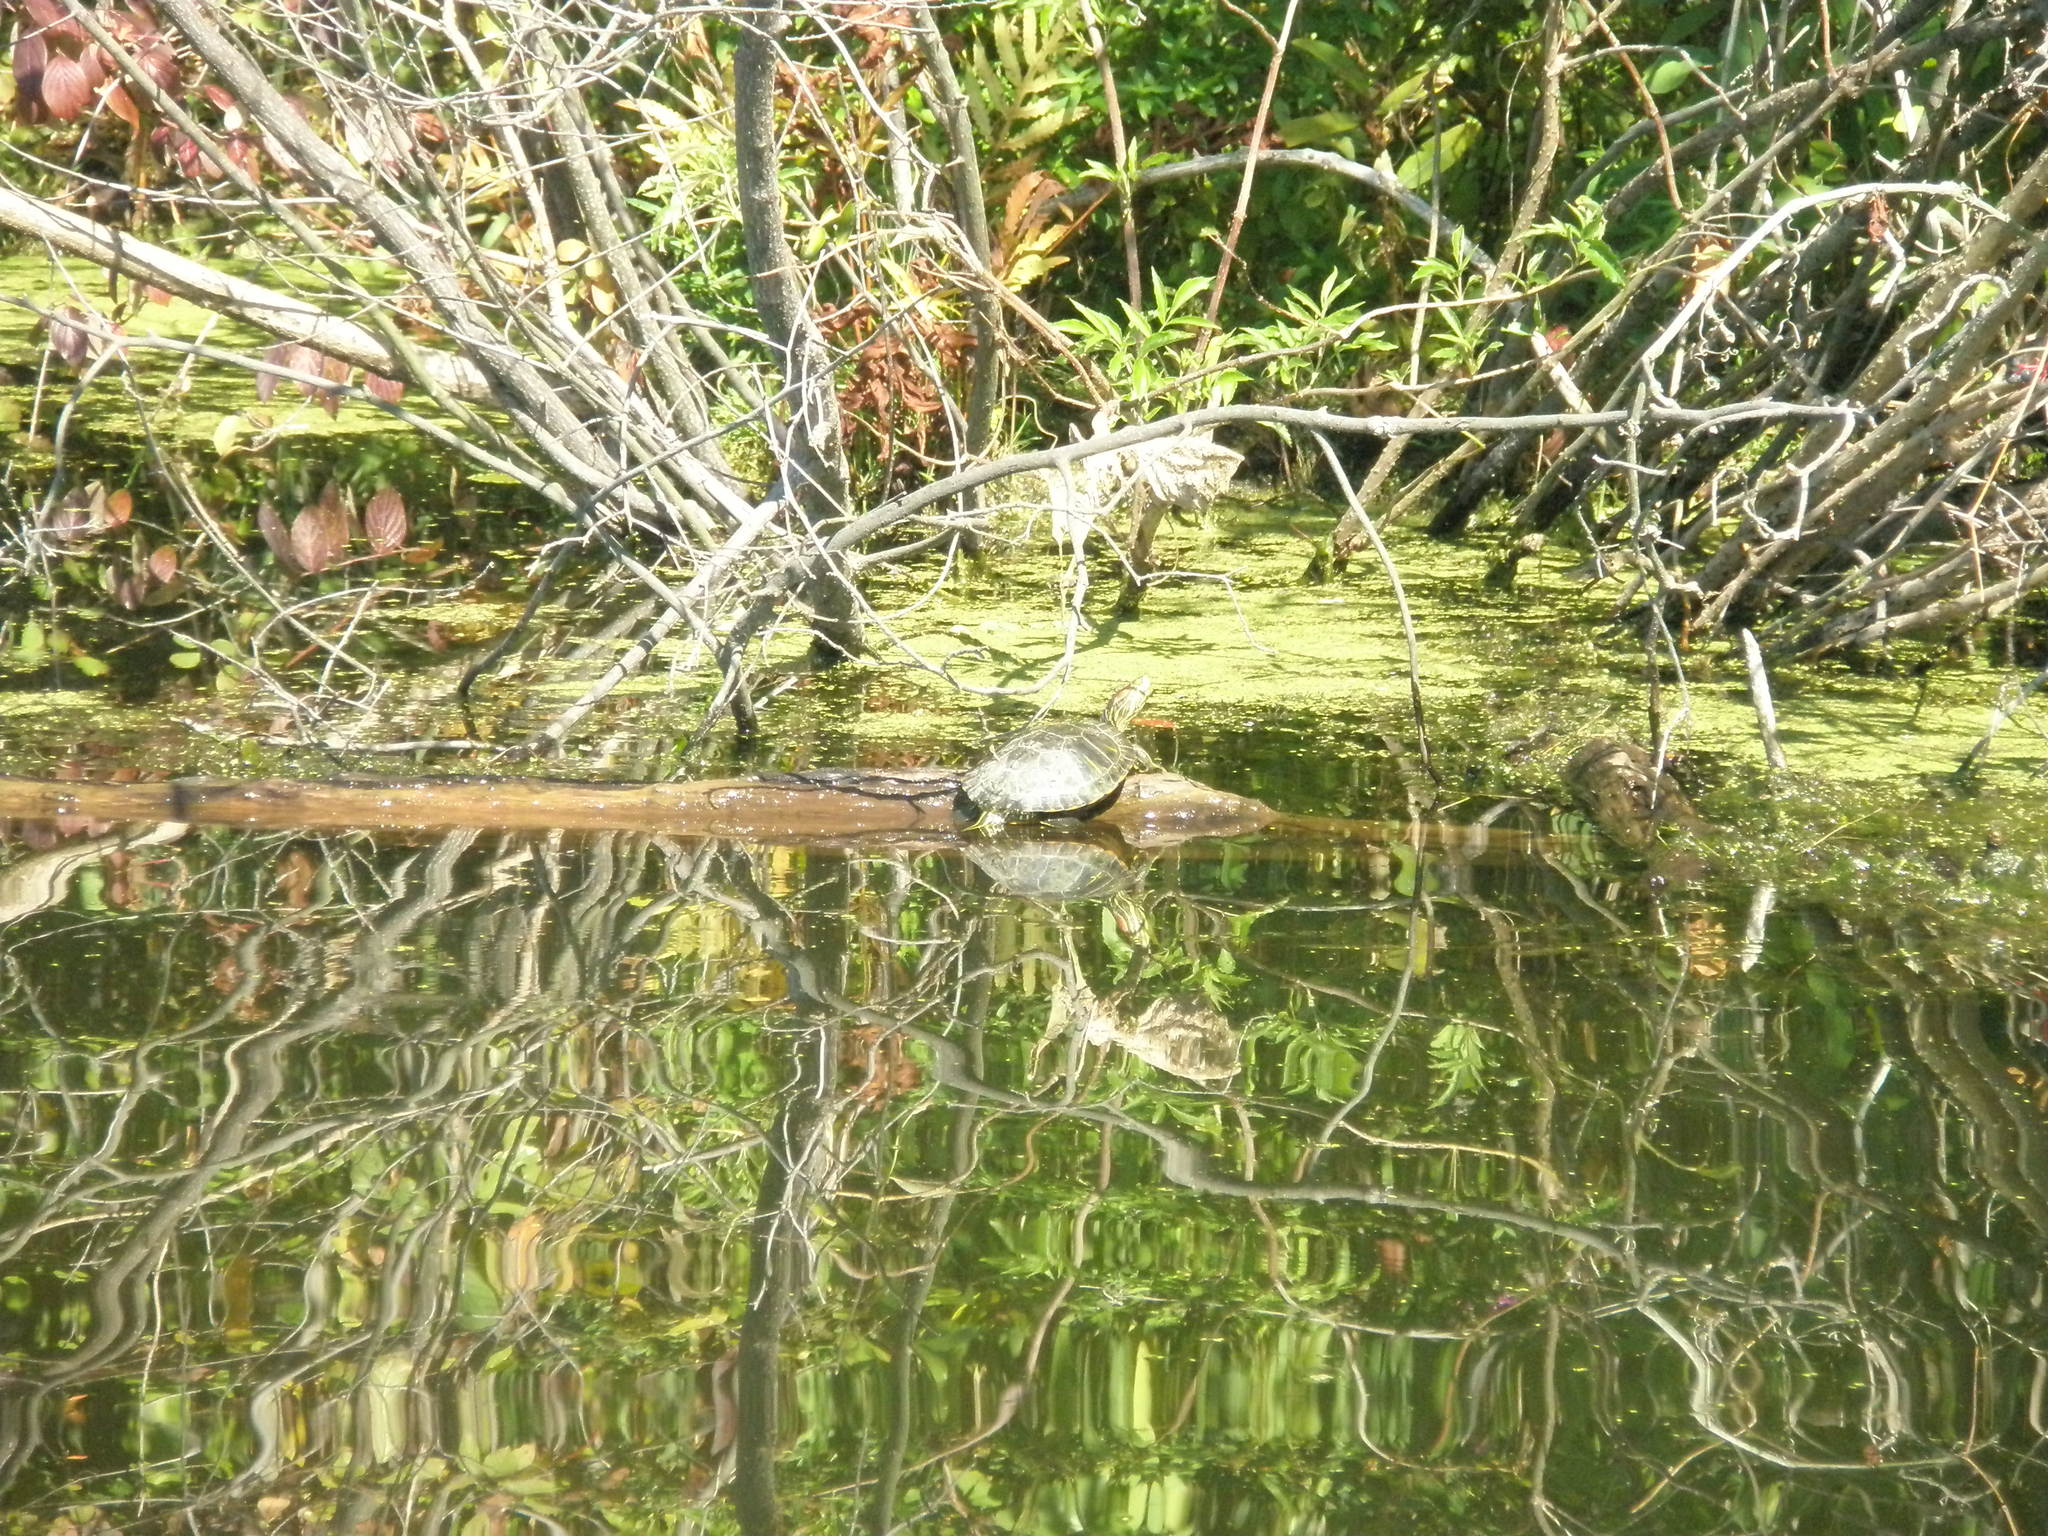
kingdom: Animalia
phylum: Chordata
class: Testudines
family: Emydidae
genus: Trachemys
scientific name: Trachemys scripta
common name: Slider
